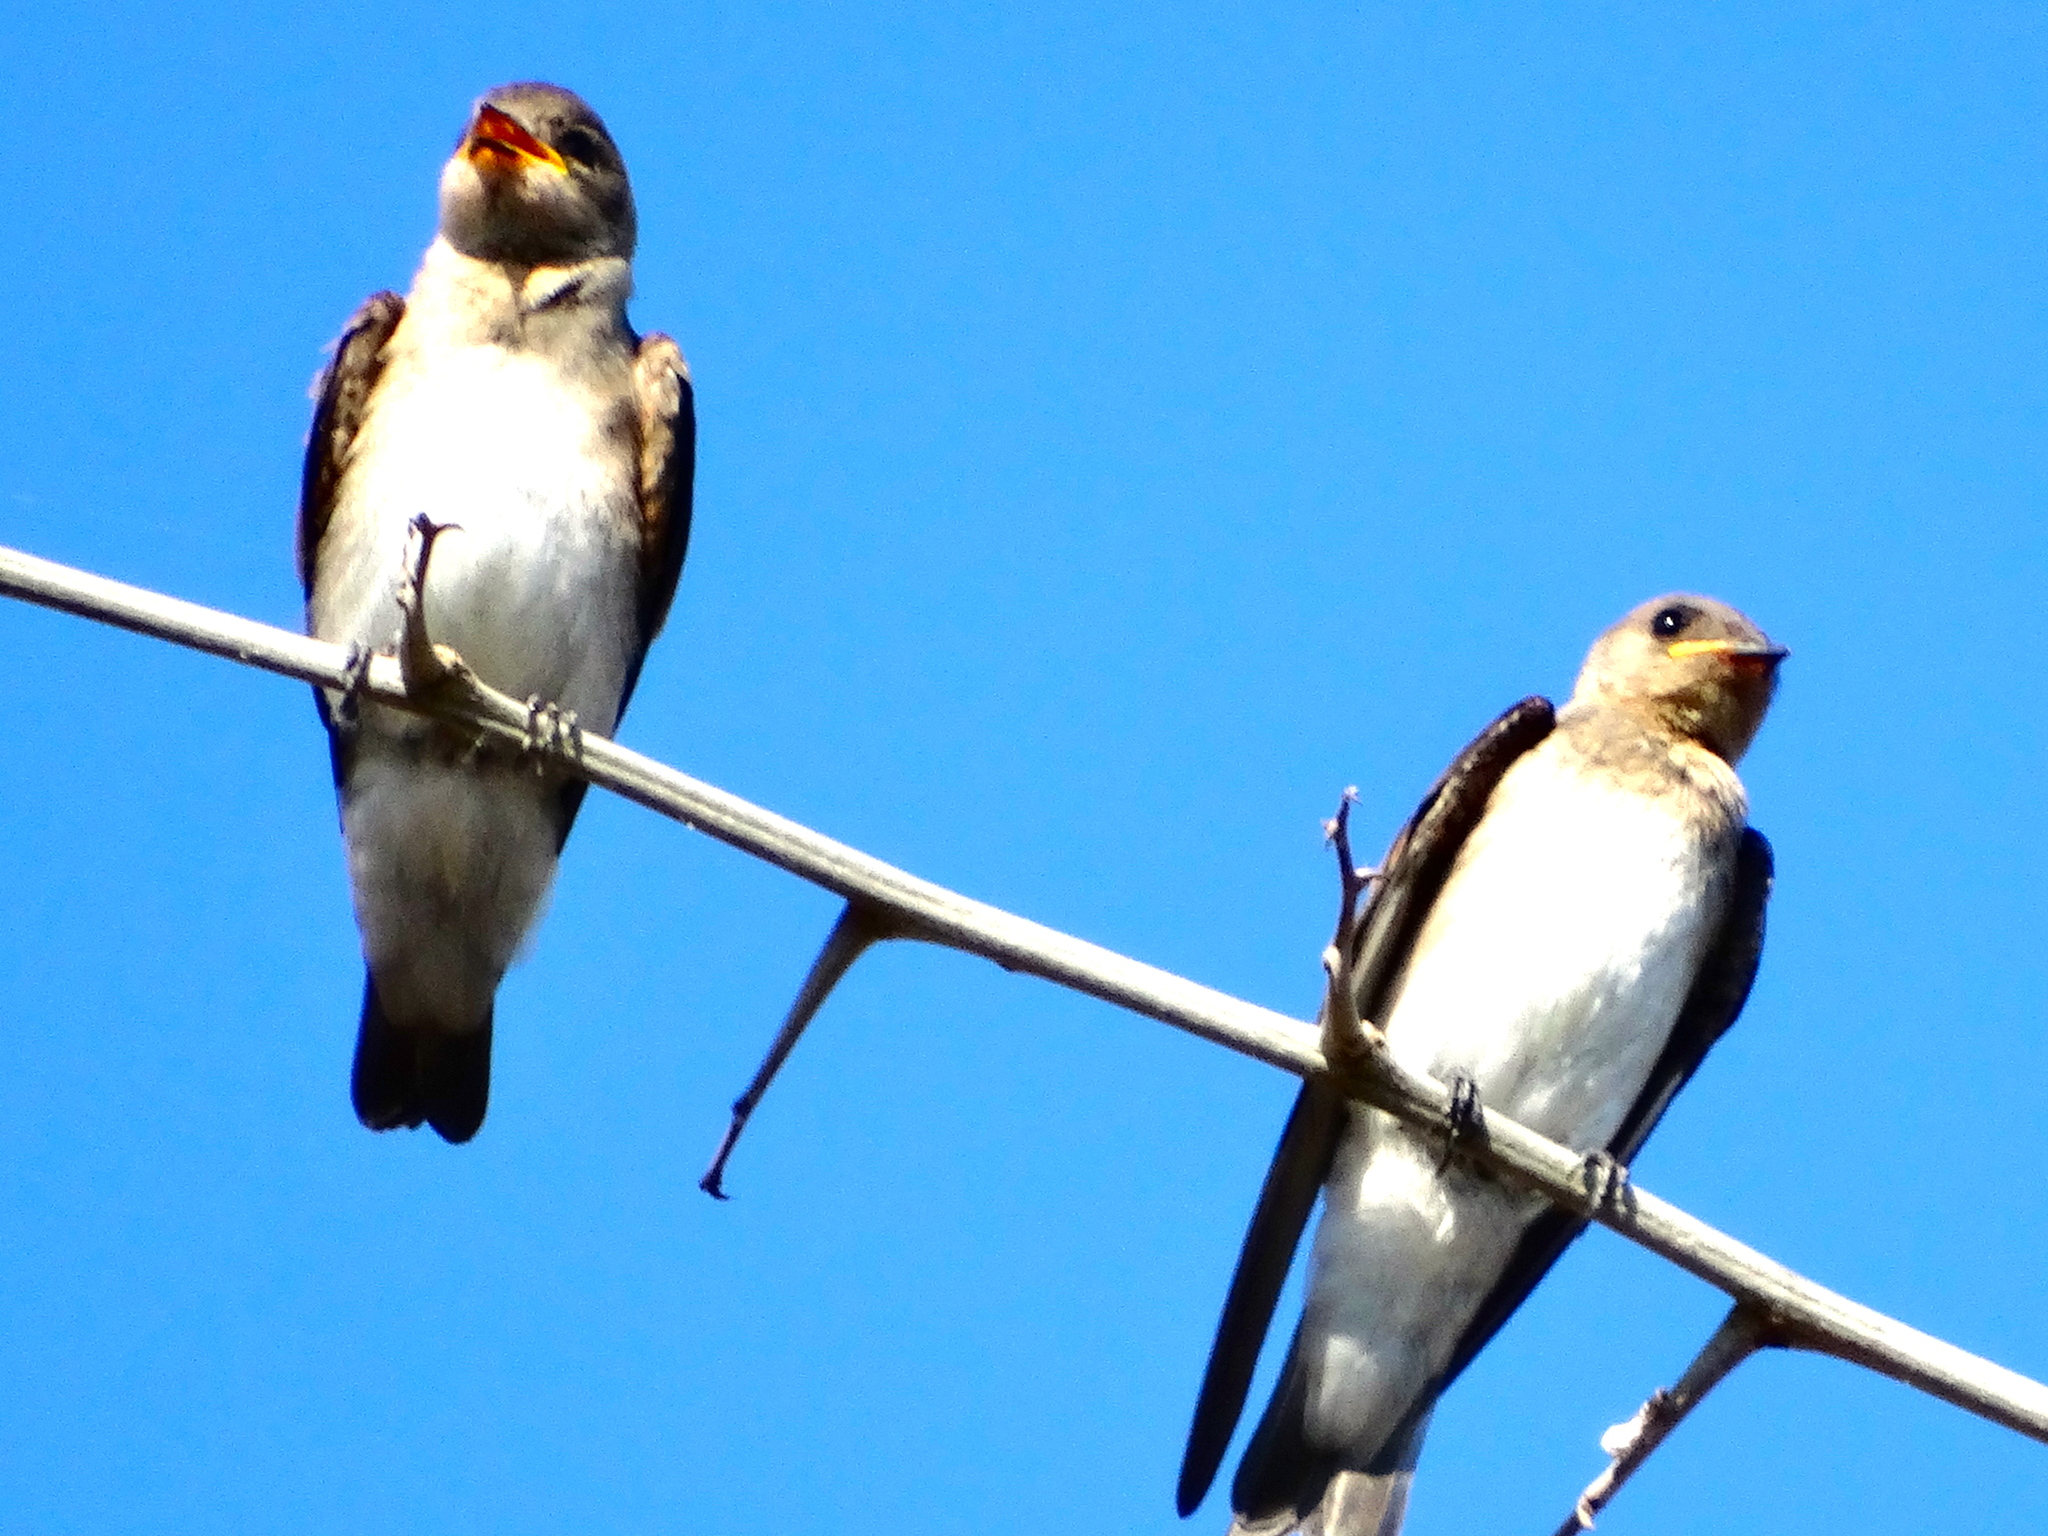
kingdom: Animalia
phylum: Chordata
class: Aves
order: Passeriformes
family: Hirundinidae
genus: Stelgidopteryx
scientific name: Stelgidopteryx serripennis
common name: Northern rough-winged swallow
